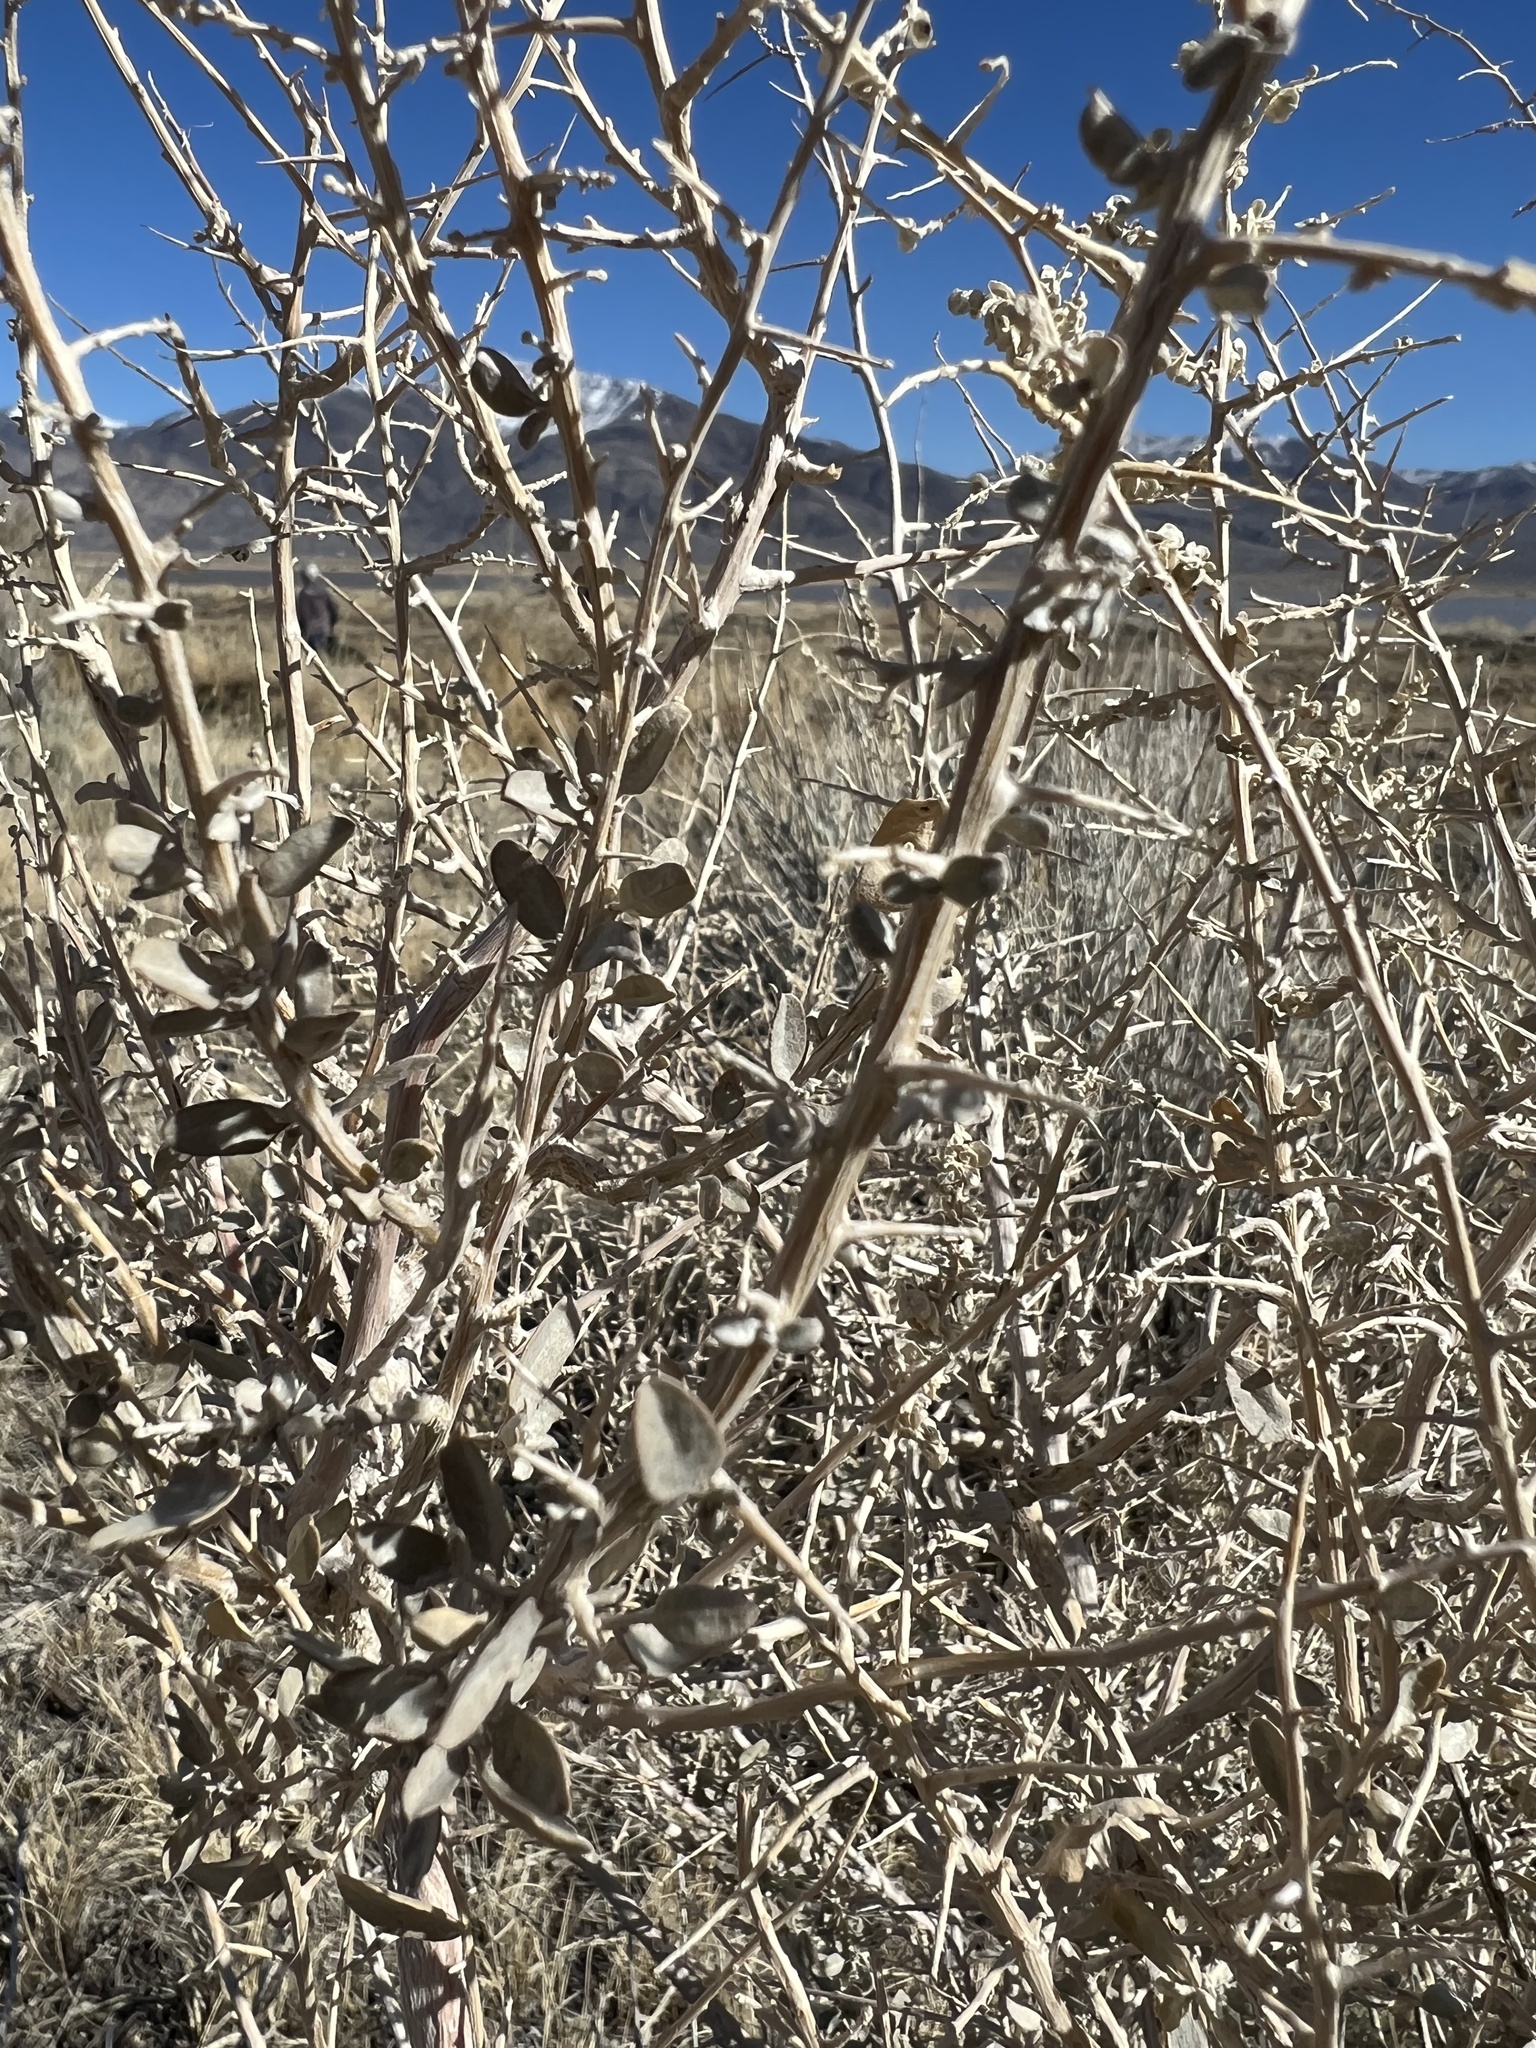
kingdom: Plantae
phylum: Tracheophyta
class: Magnoliopsida
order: Caryophyllales
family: Amaranthaceae
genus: Atriplex
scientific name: Atriplex torreyi
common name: Torrey's saltbush
